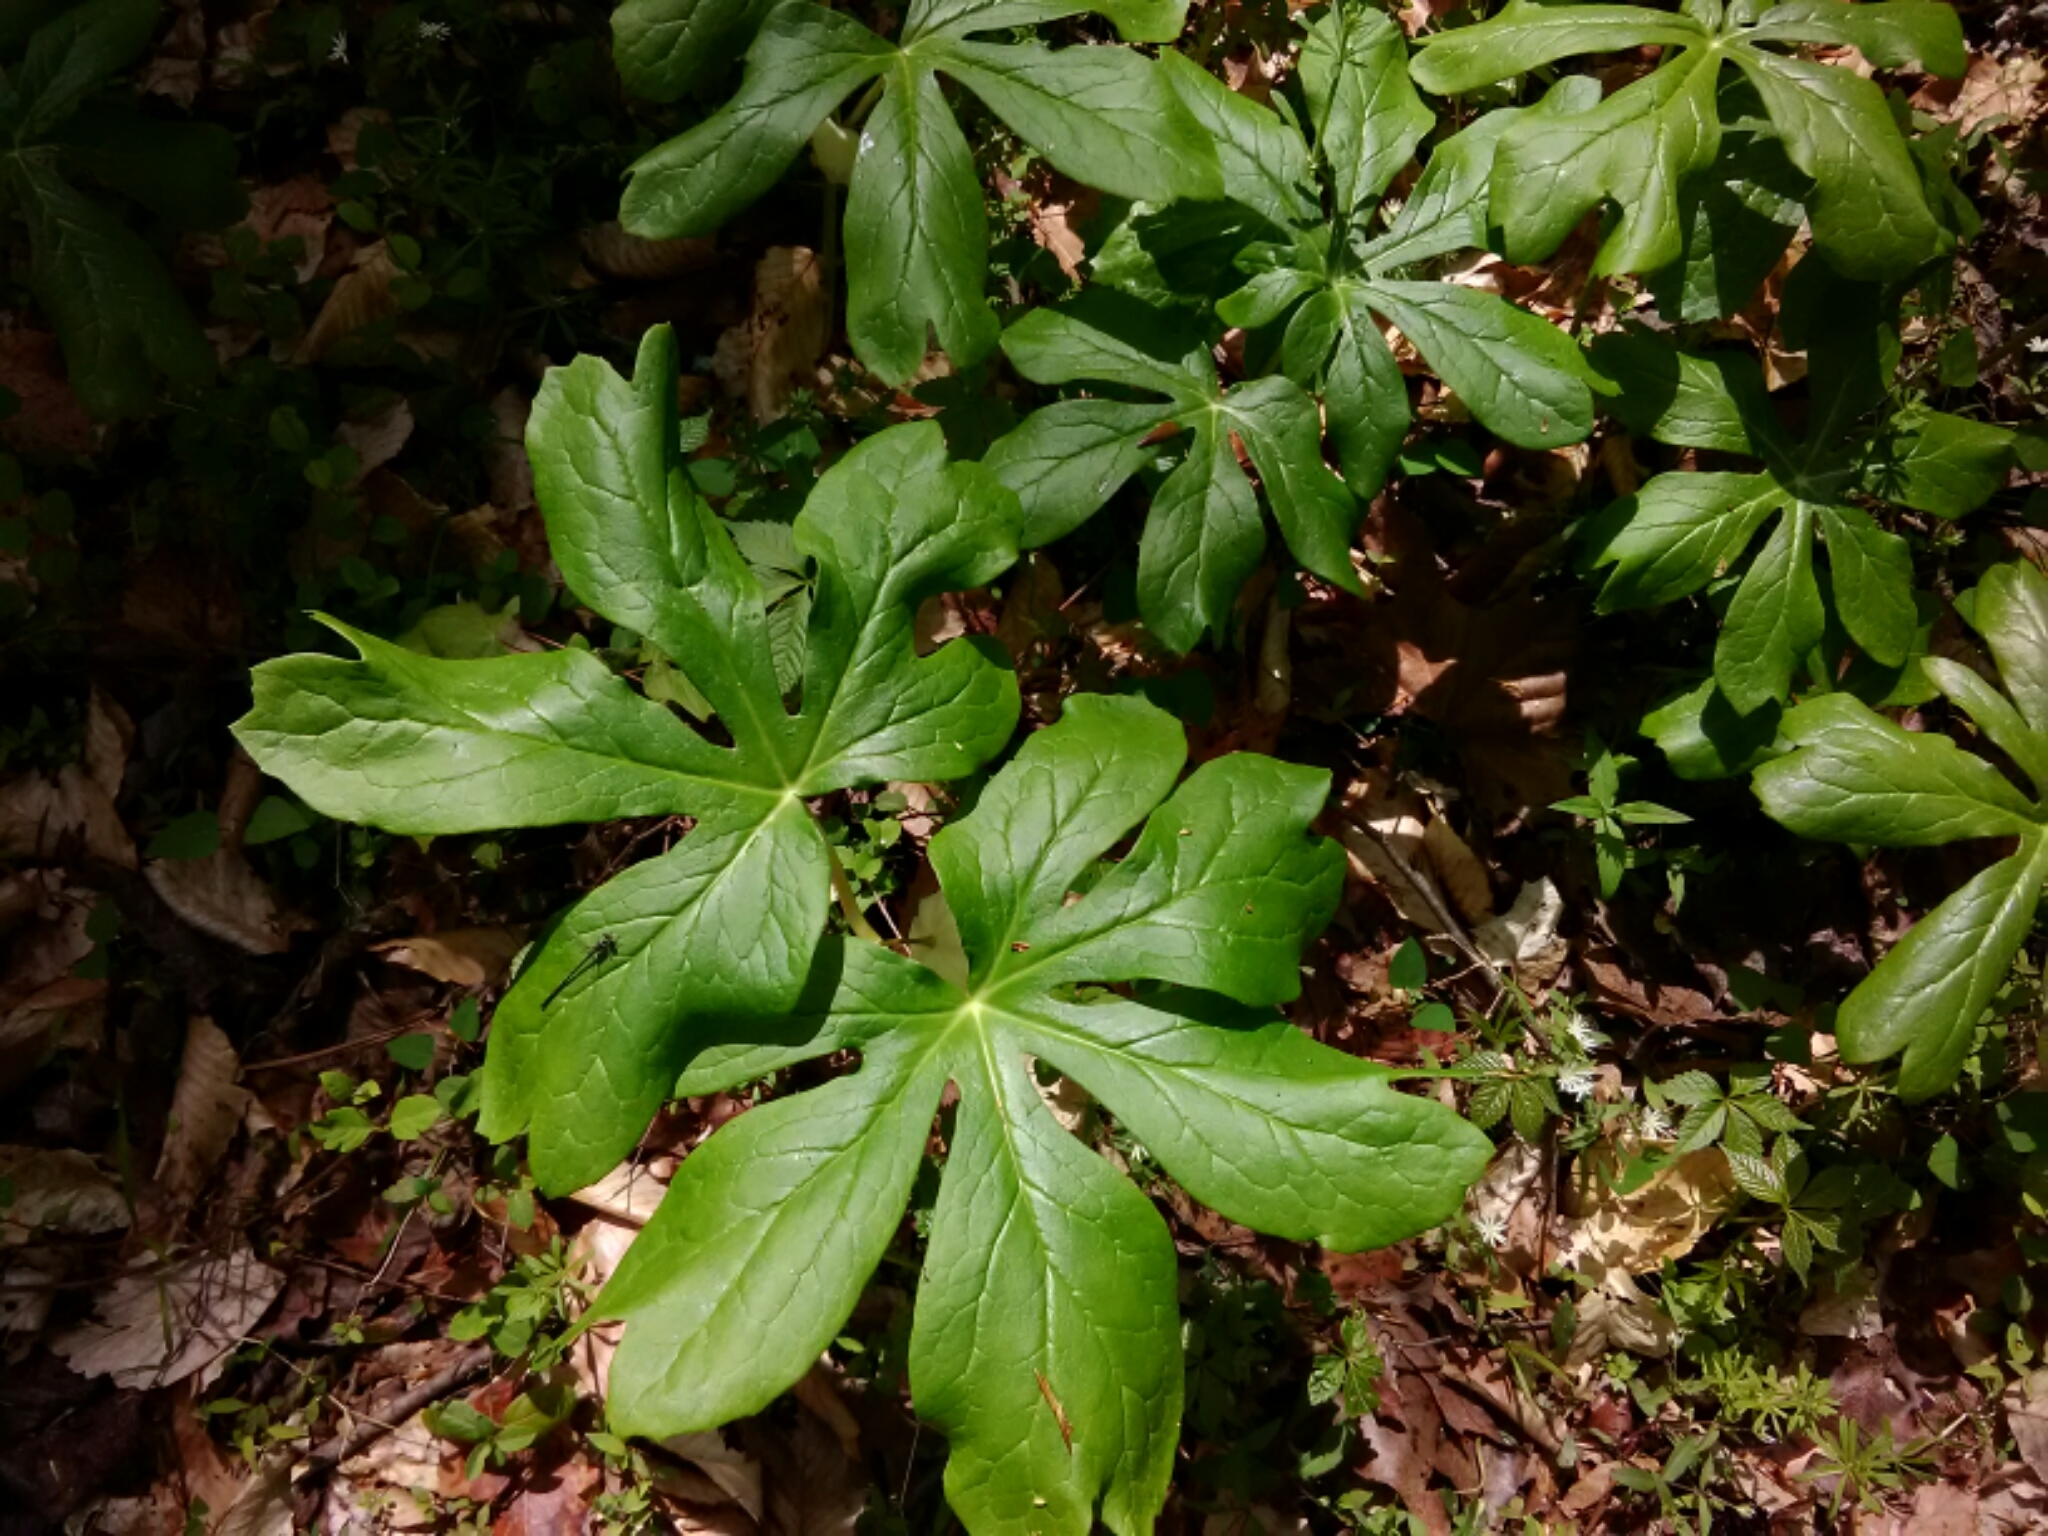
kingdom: Plantae
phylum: Tracheophyta
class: Magnoliopsida
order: Ranunculales
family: Berberidaceae
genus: Podophyllum
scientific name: Podophyllum peltatum
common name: Wild mandrake
